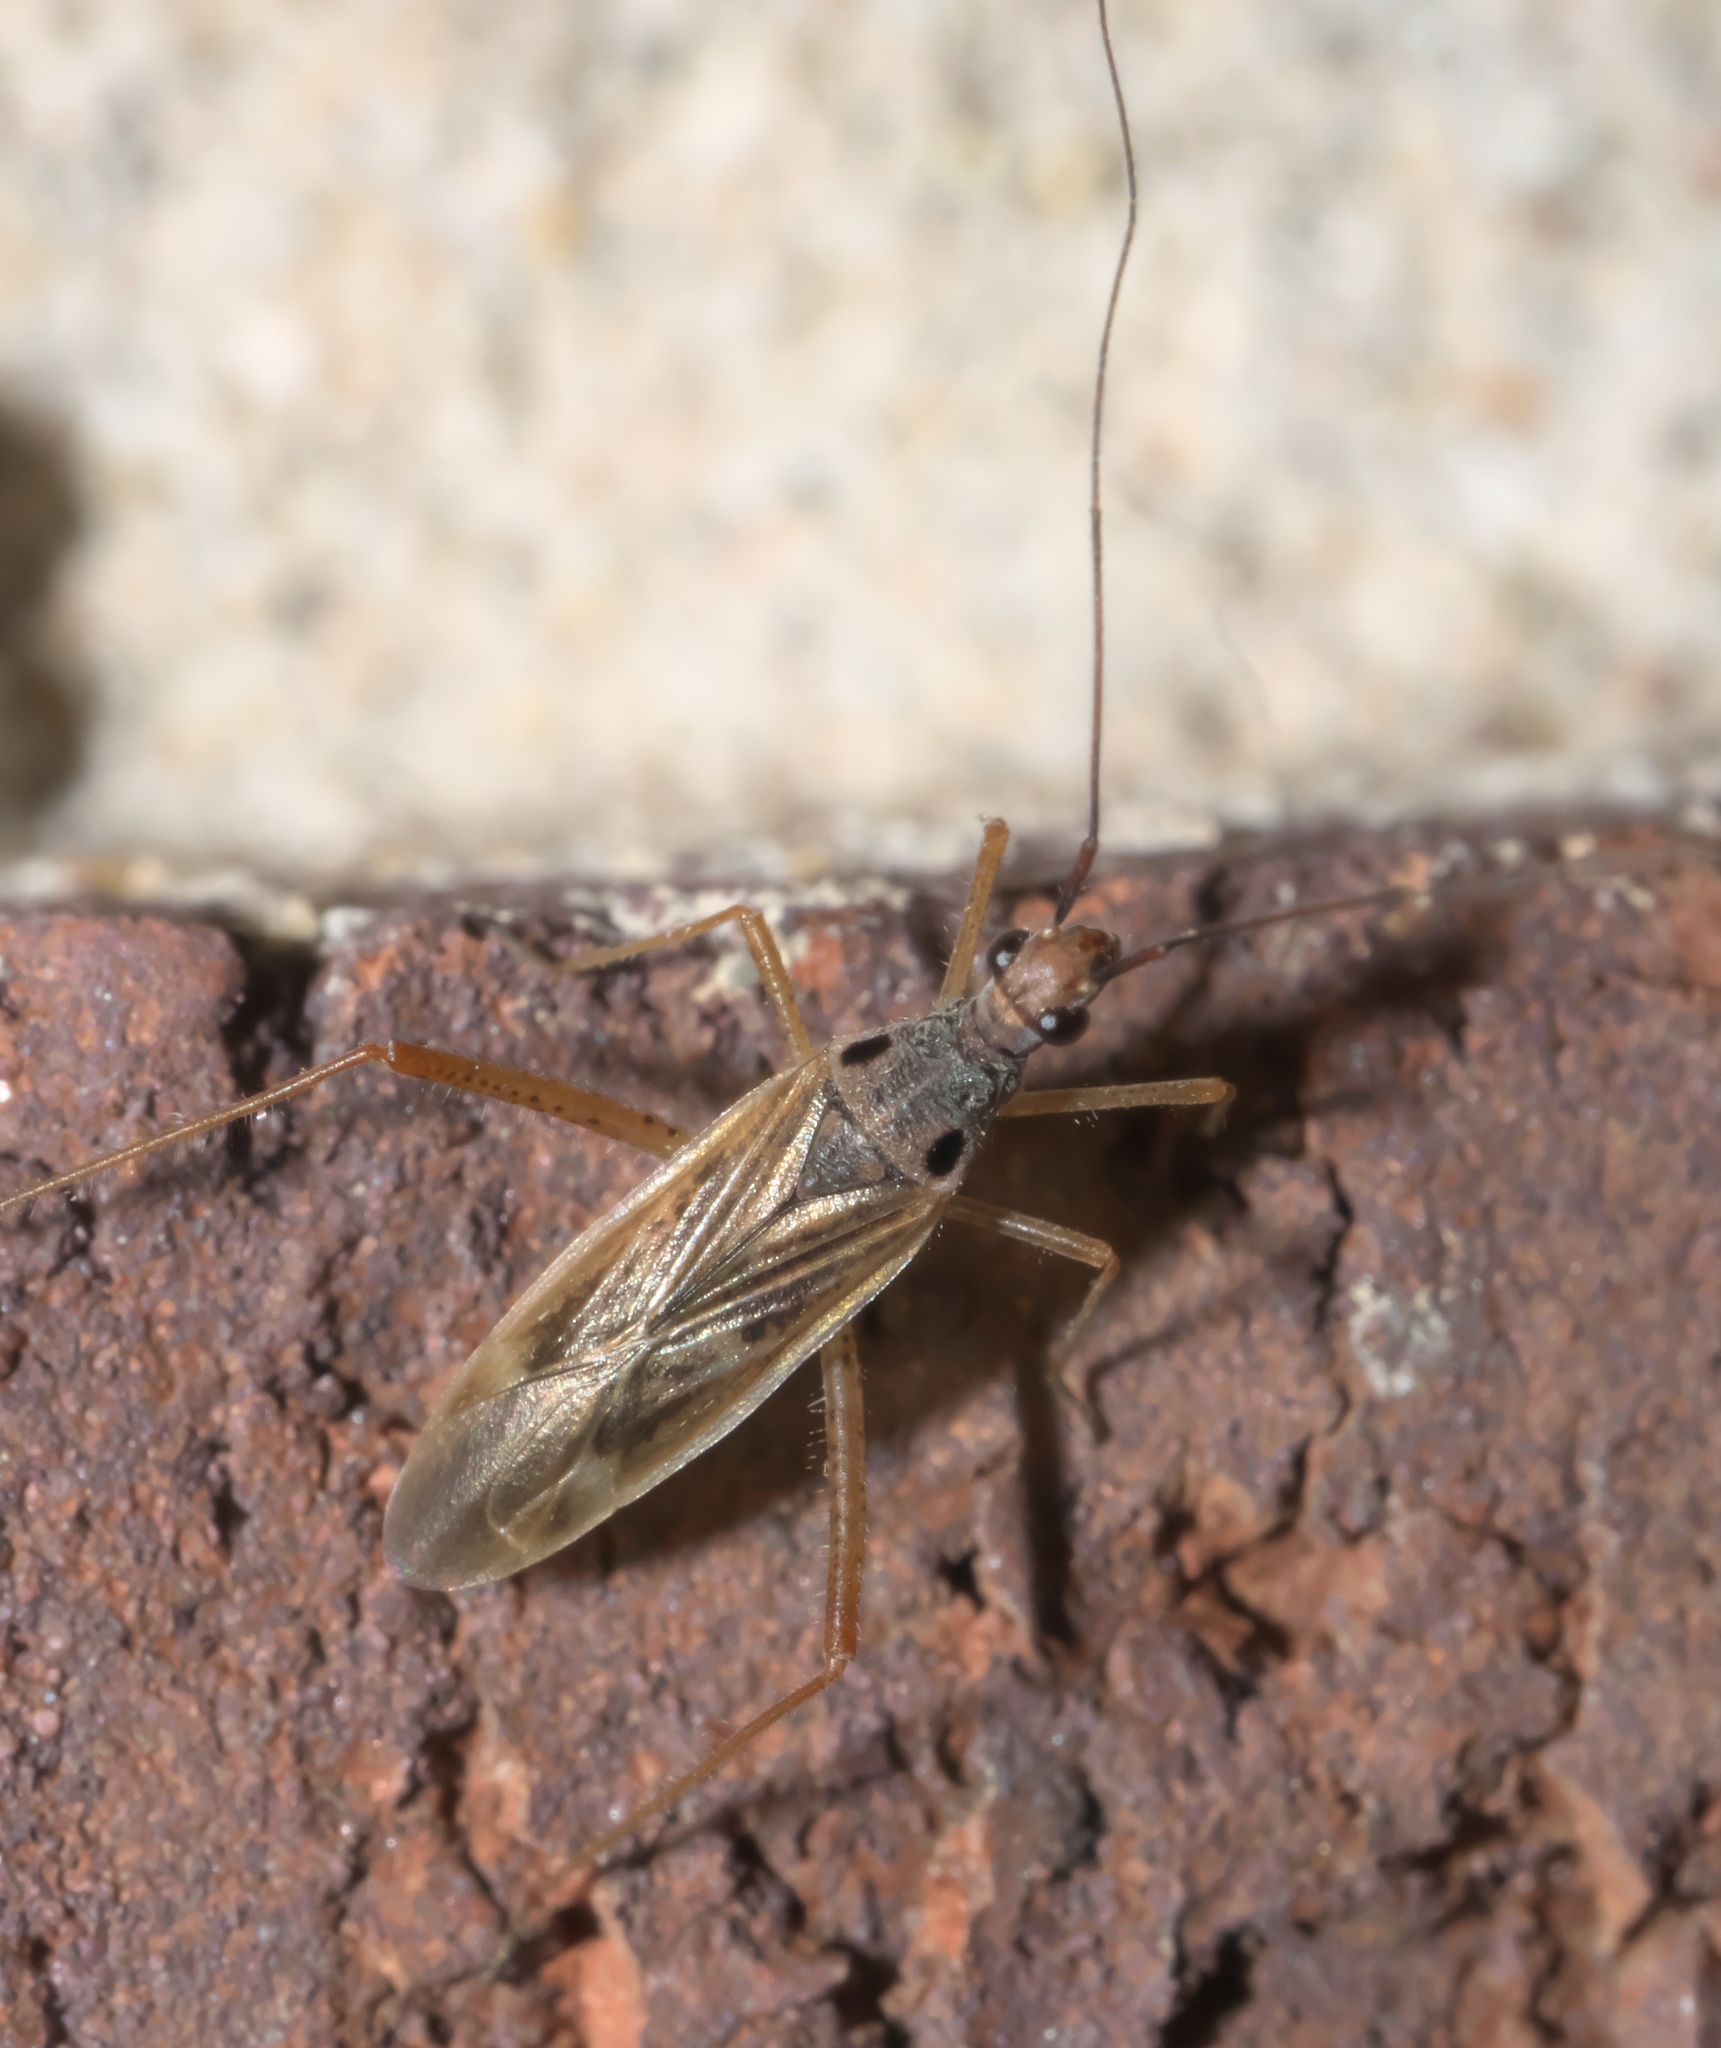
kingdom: Animalia
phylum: Arthropoda
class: Insecta
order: Hemiptera
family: Miridae
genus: Collaria
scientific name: Collaria oculata
